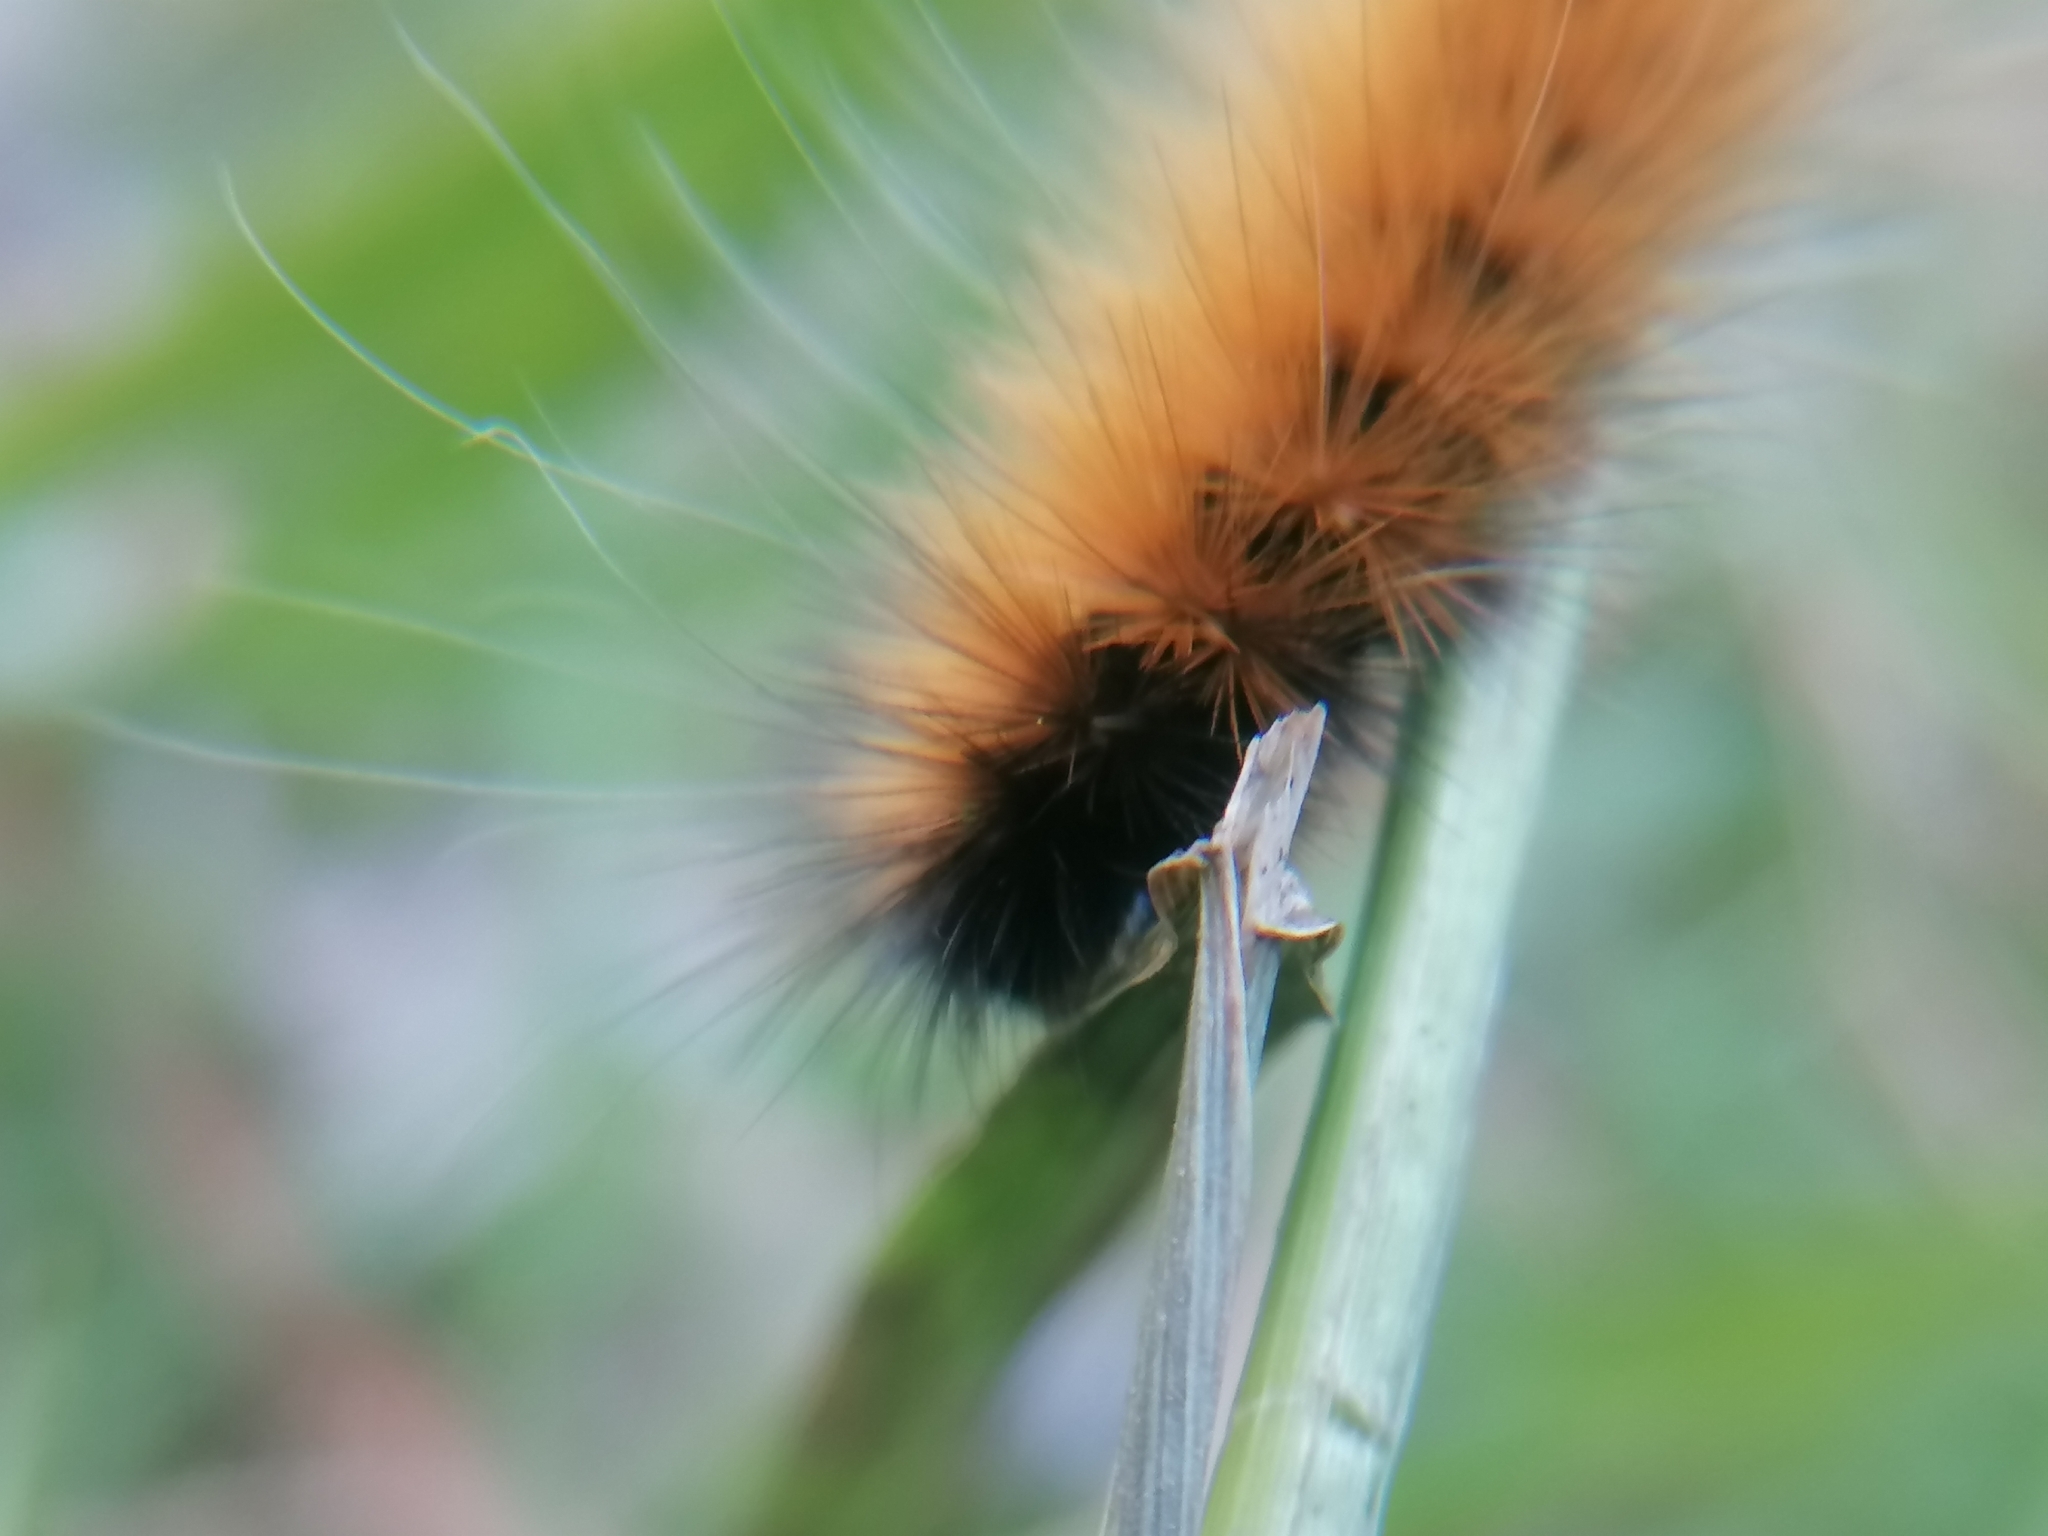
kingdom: Animalia
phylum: Arthropoda
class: Insecta
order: Lepidoptera
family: Erebidae
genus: Spilosoma
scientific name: Spilosoma virginica
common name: Virginia tiger moth
